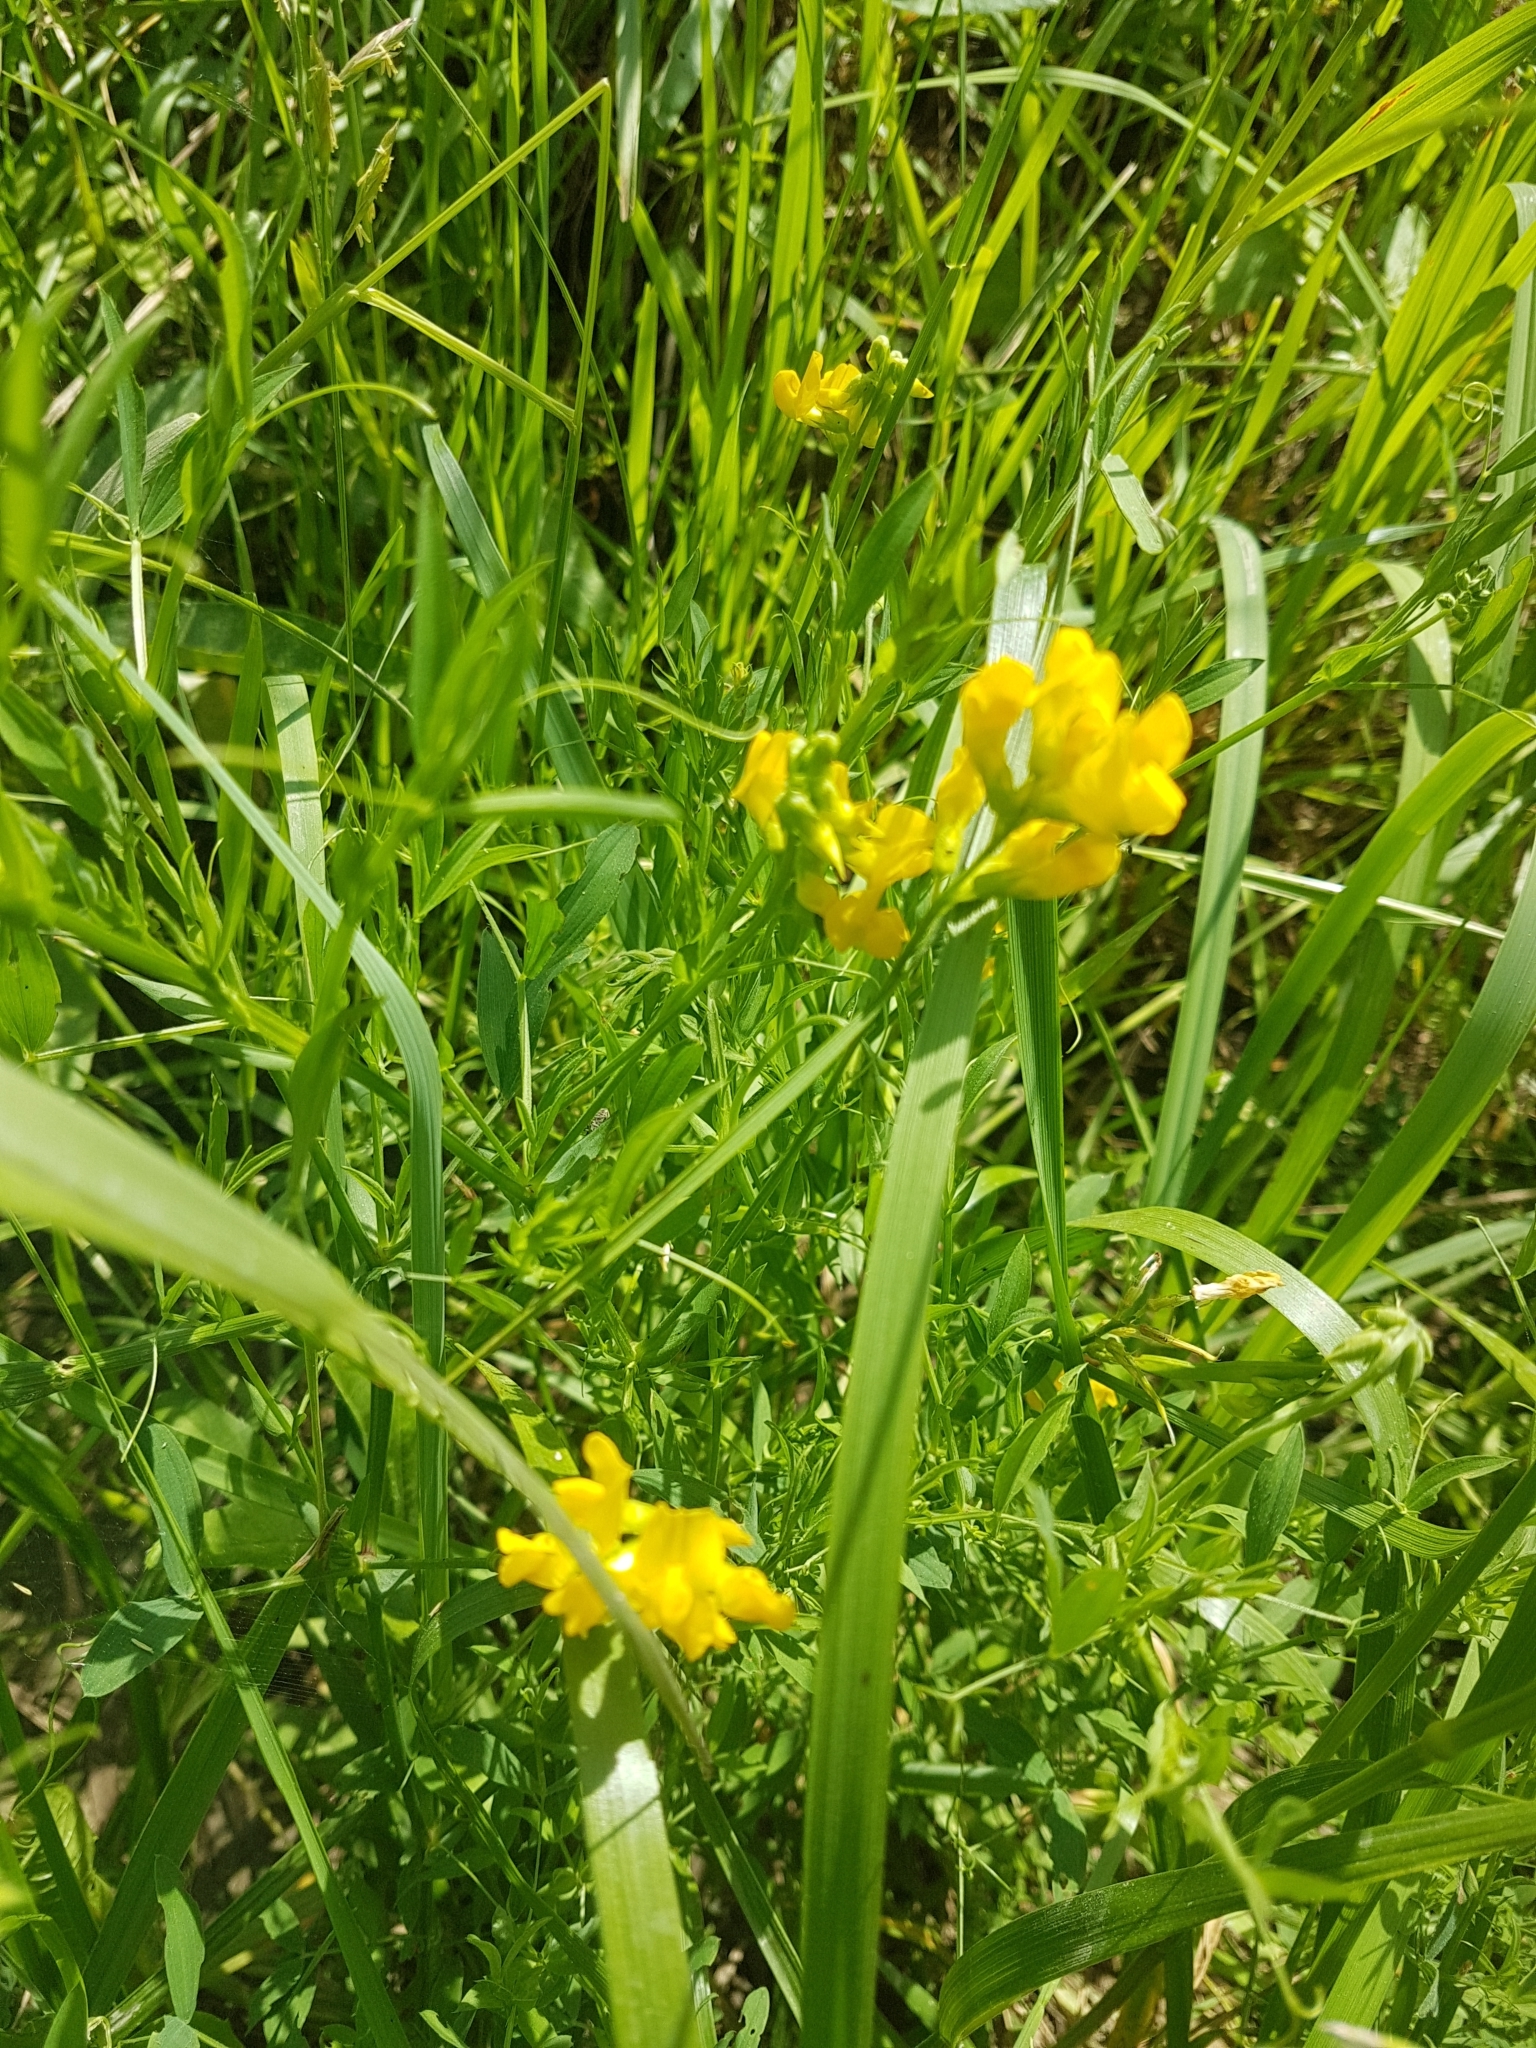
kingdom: Plantae
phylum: Tracheophyta
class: Magnoliopsida
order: Fabales
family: Fabaceae
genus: Lathyrus
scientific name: Lathyrus pratensis
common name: Meadow vetchling
